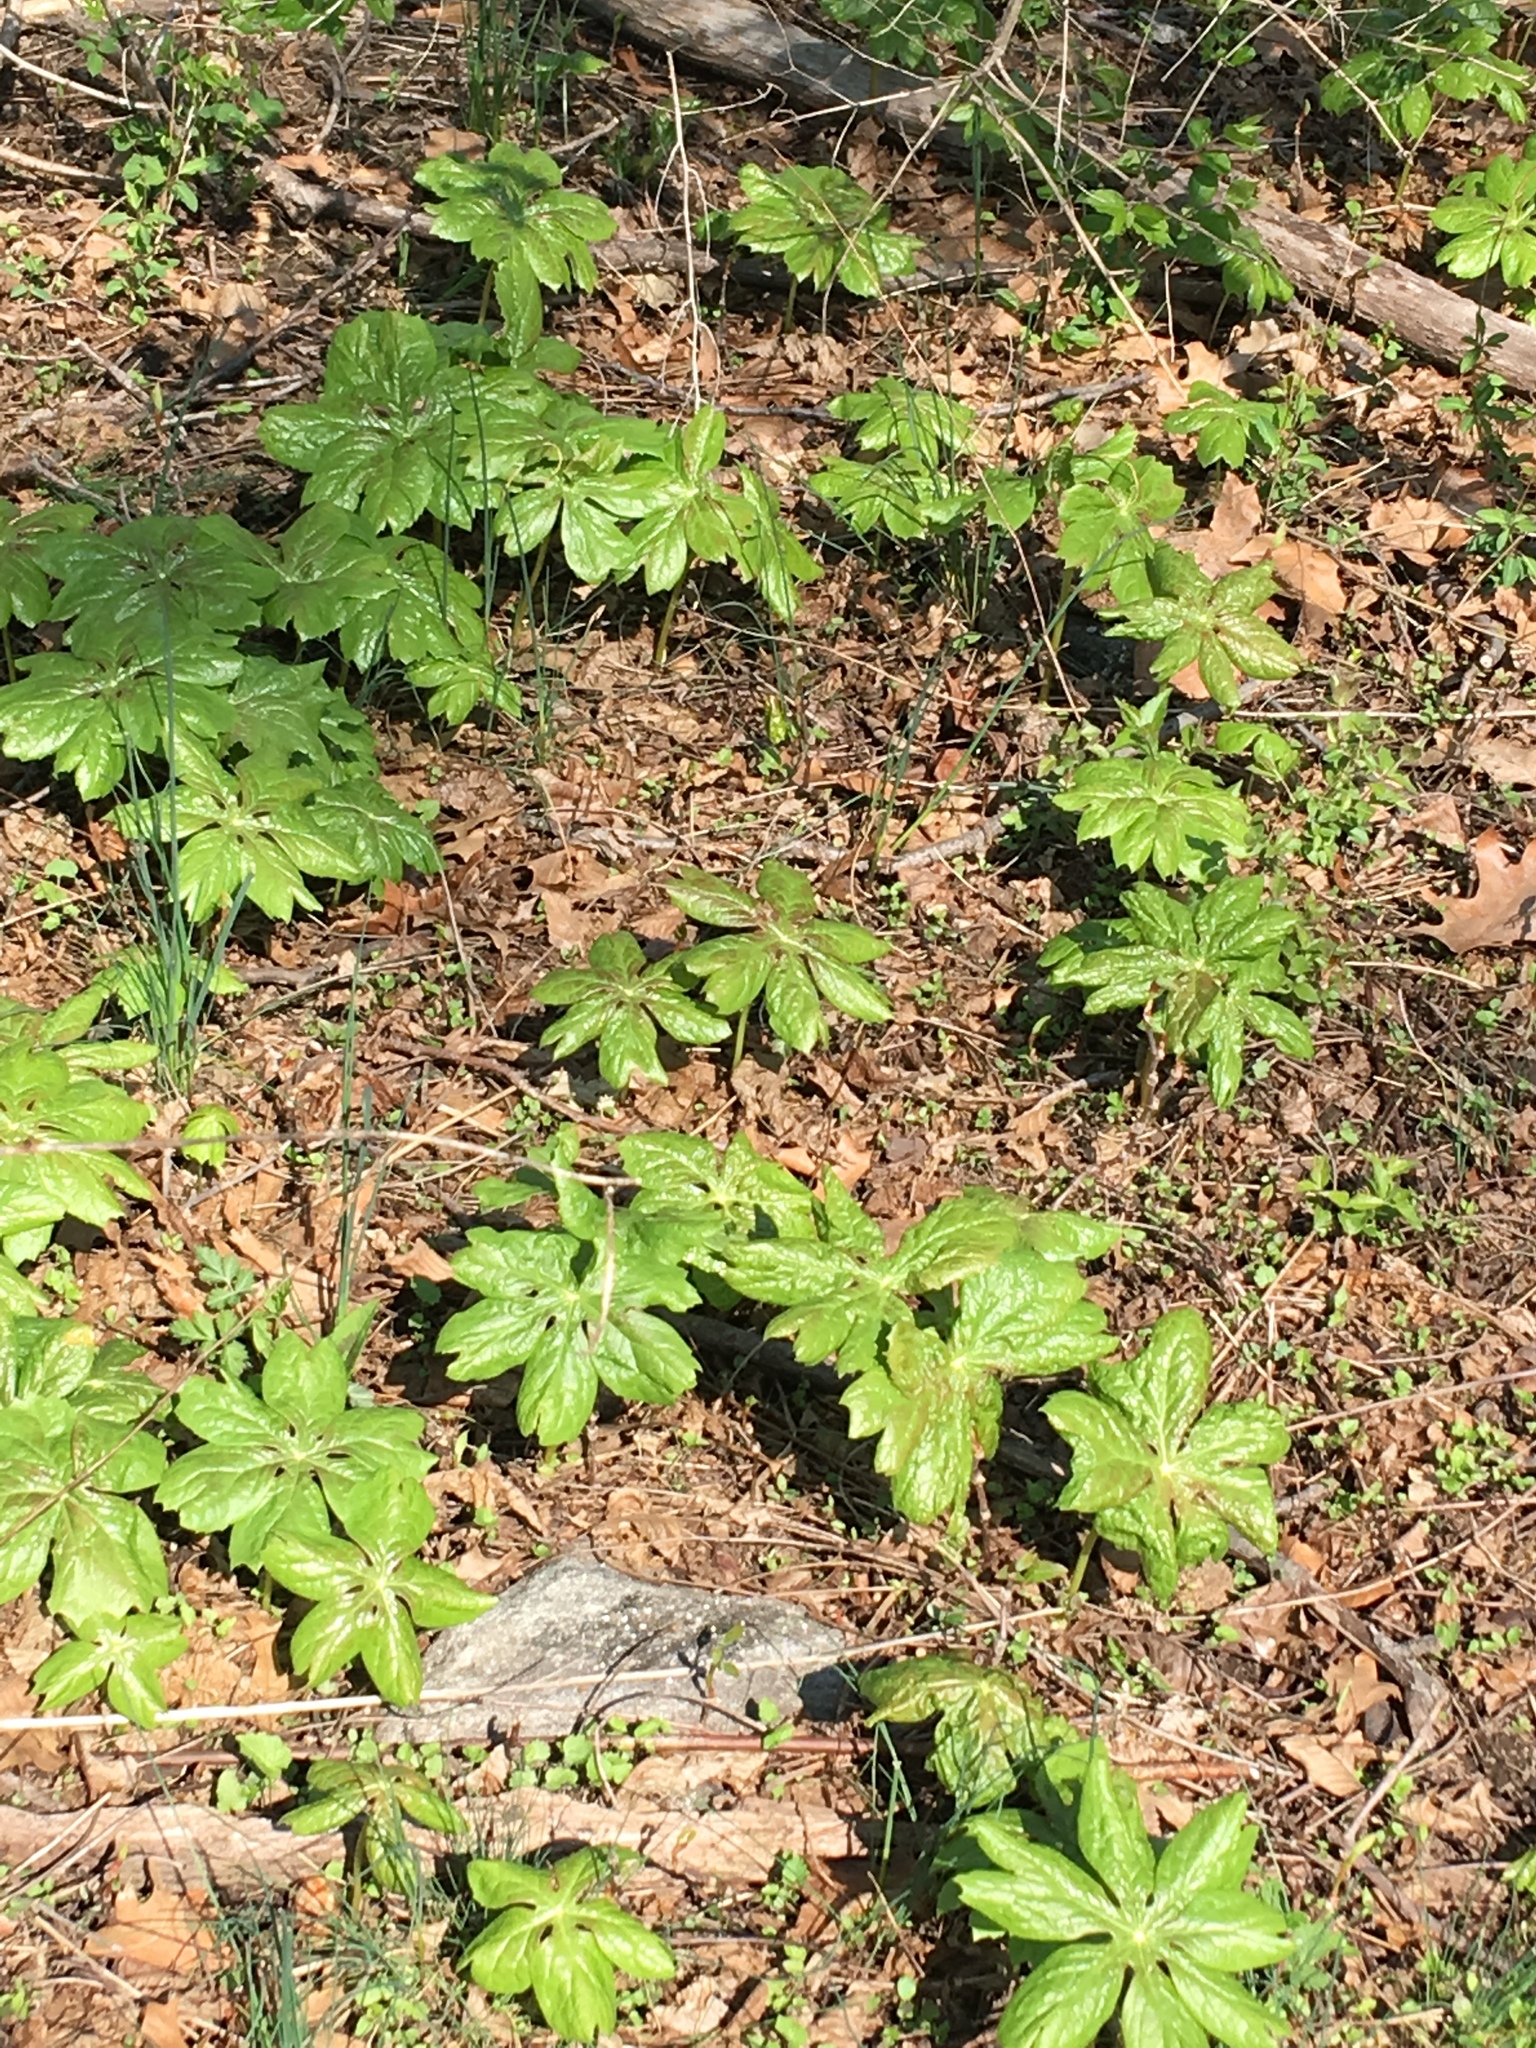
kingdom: Plantae
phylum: Tracheophyta
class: Magnoliopsida
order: Ranunculales
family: Berberidaceae
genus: Podophyllum
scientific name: Podophyllum peltatum
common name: Wild mandrake
